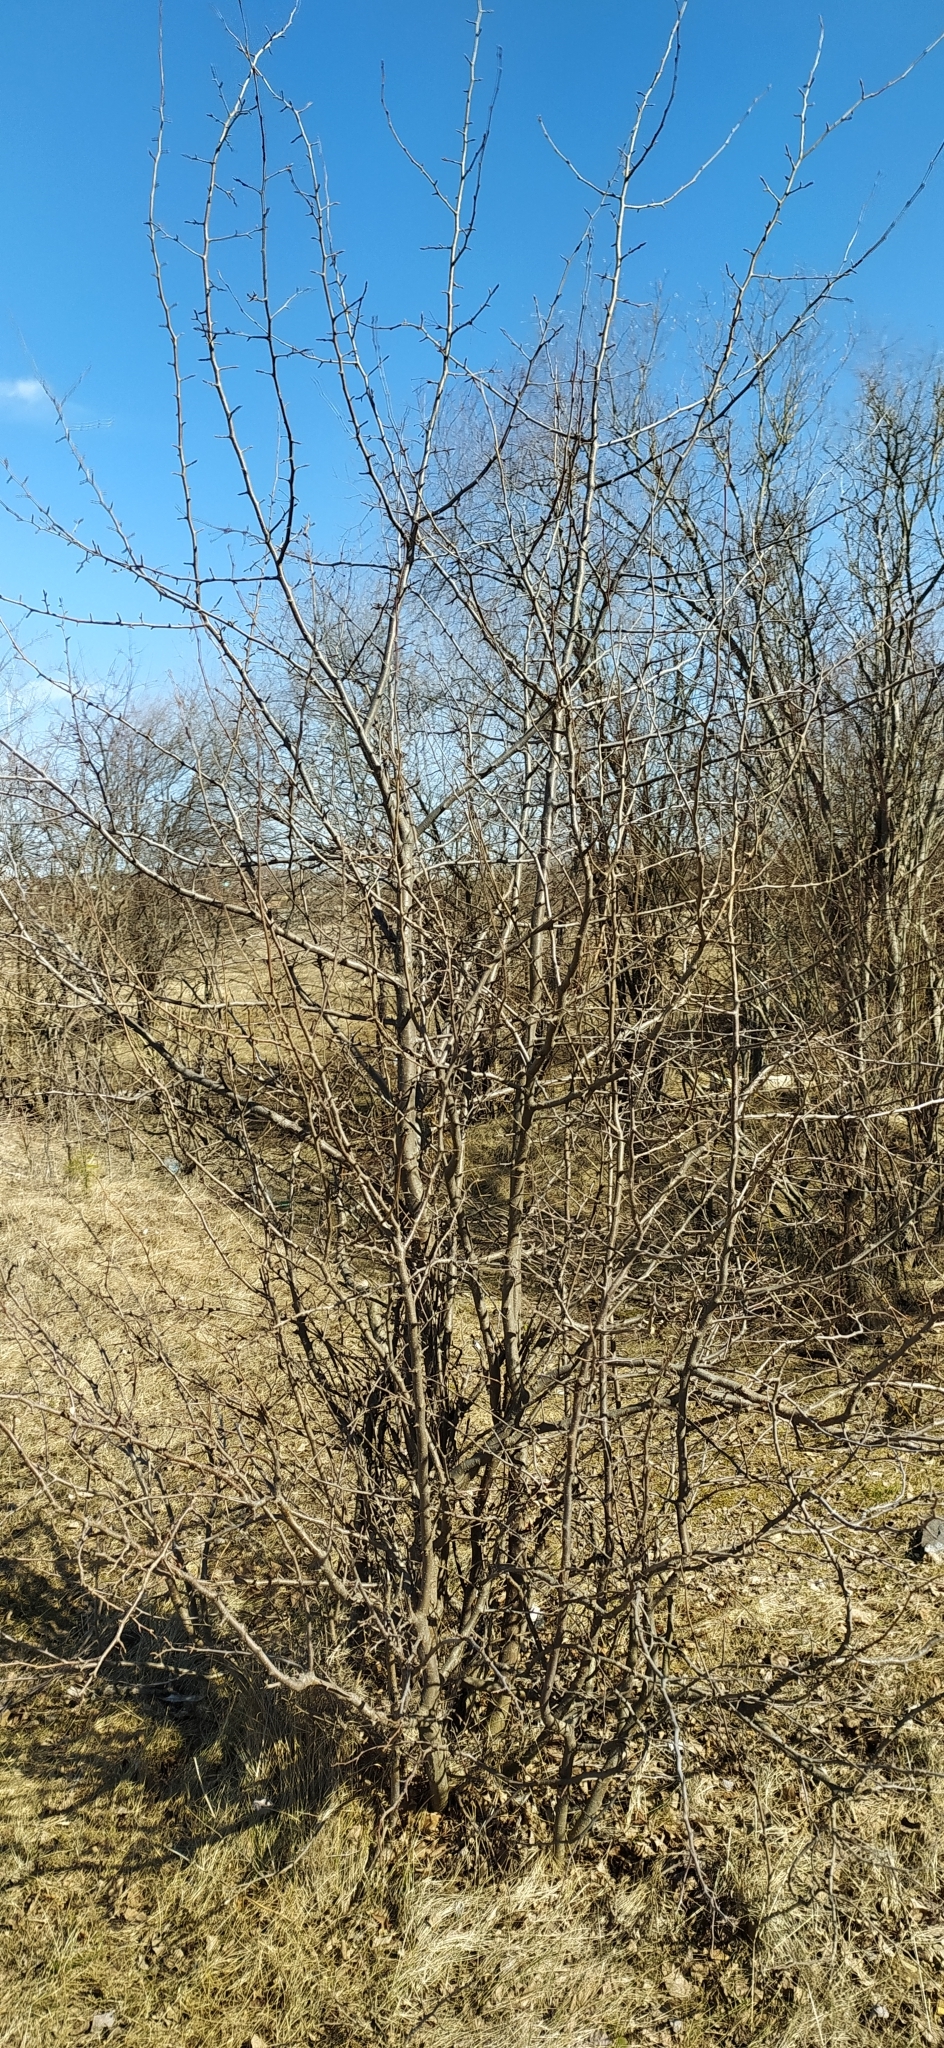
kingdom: Plantae
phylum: Tracheophyta
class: Magnoliopsida
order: Rosales
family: Rosaceae
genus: Malus
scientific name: Malus baccata
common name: Siberian crab
